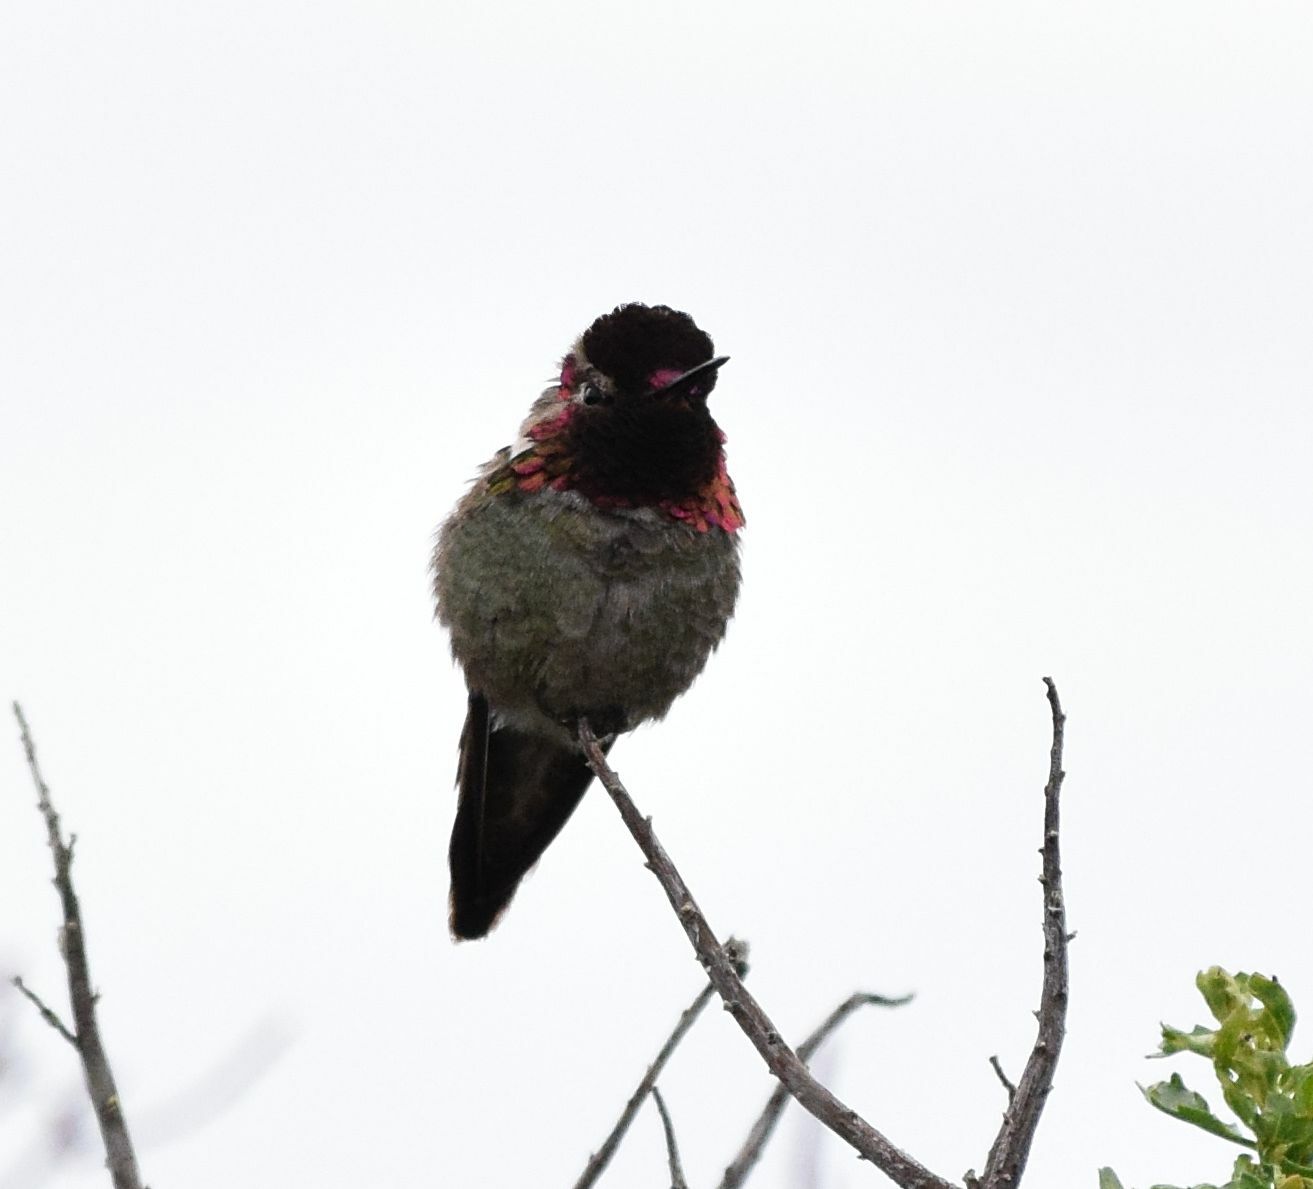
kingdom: Animalia
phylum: Chordata
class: Aves
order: Apodiformes
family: Trochilidae
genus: Calypte
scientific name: Calypte anna
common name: Anna's hummingbird
